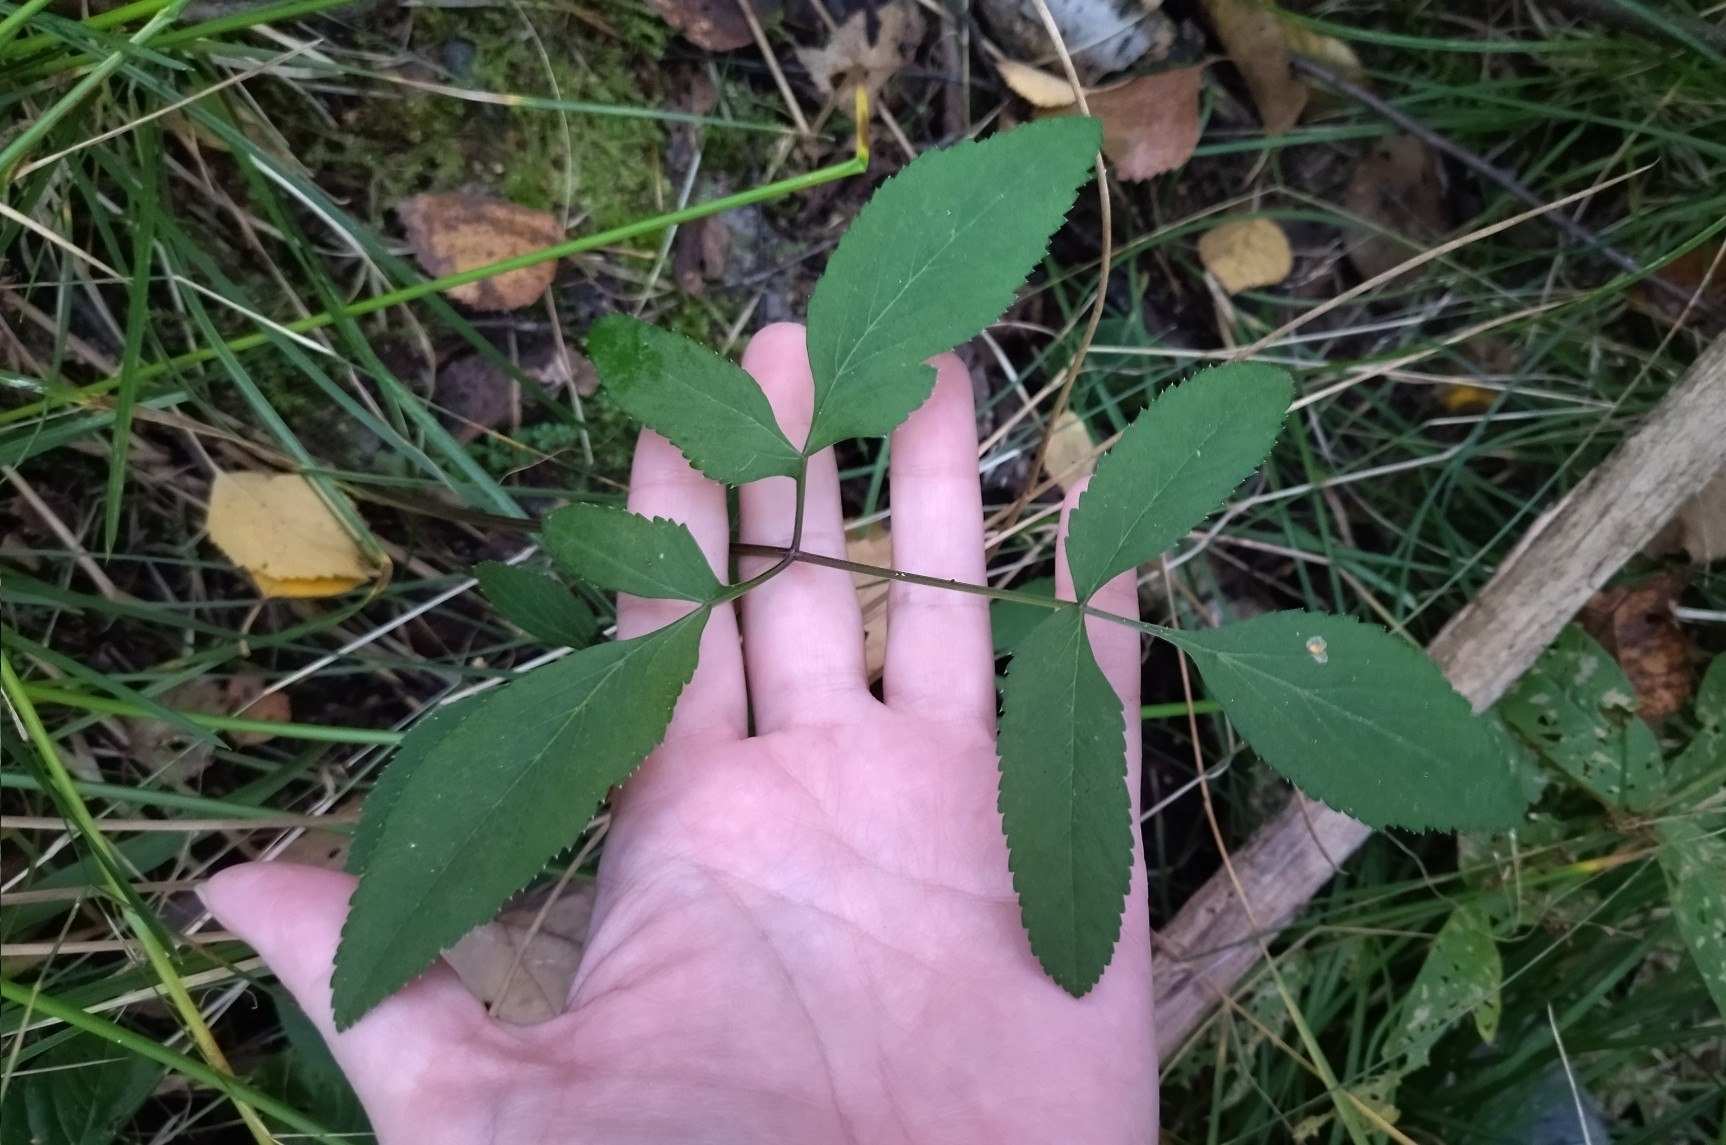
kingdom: Plantae
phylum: Tracheophyta
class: Magnoliopsida
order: Apiales
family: Apiaceae
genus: Angelica
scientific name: Angelica sylvestris
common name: Wild angelica
